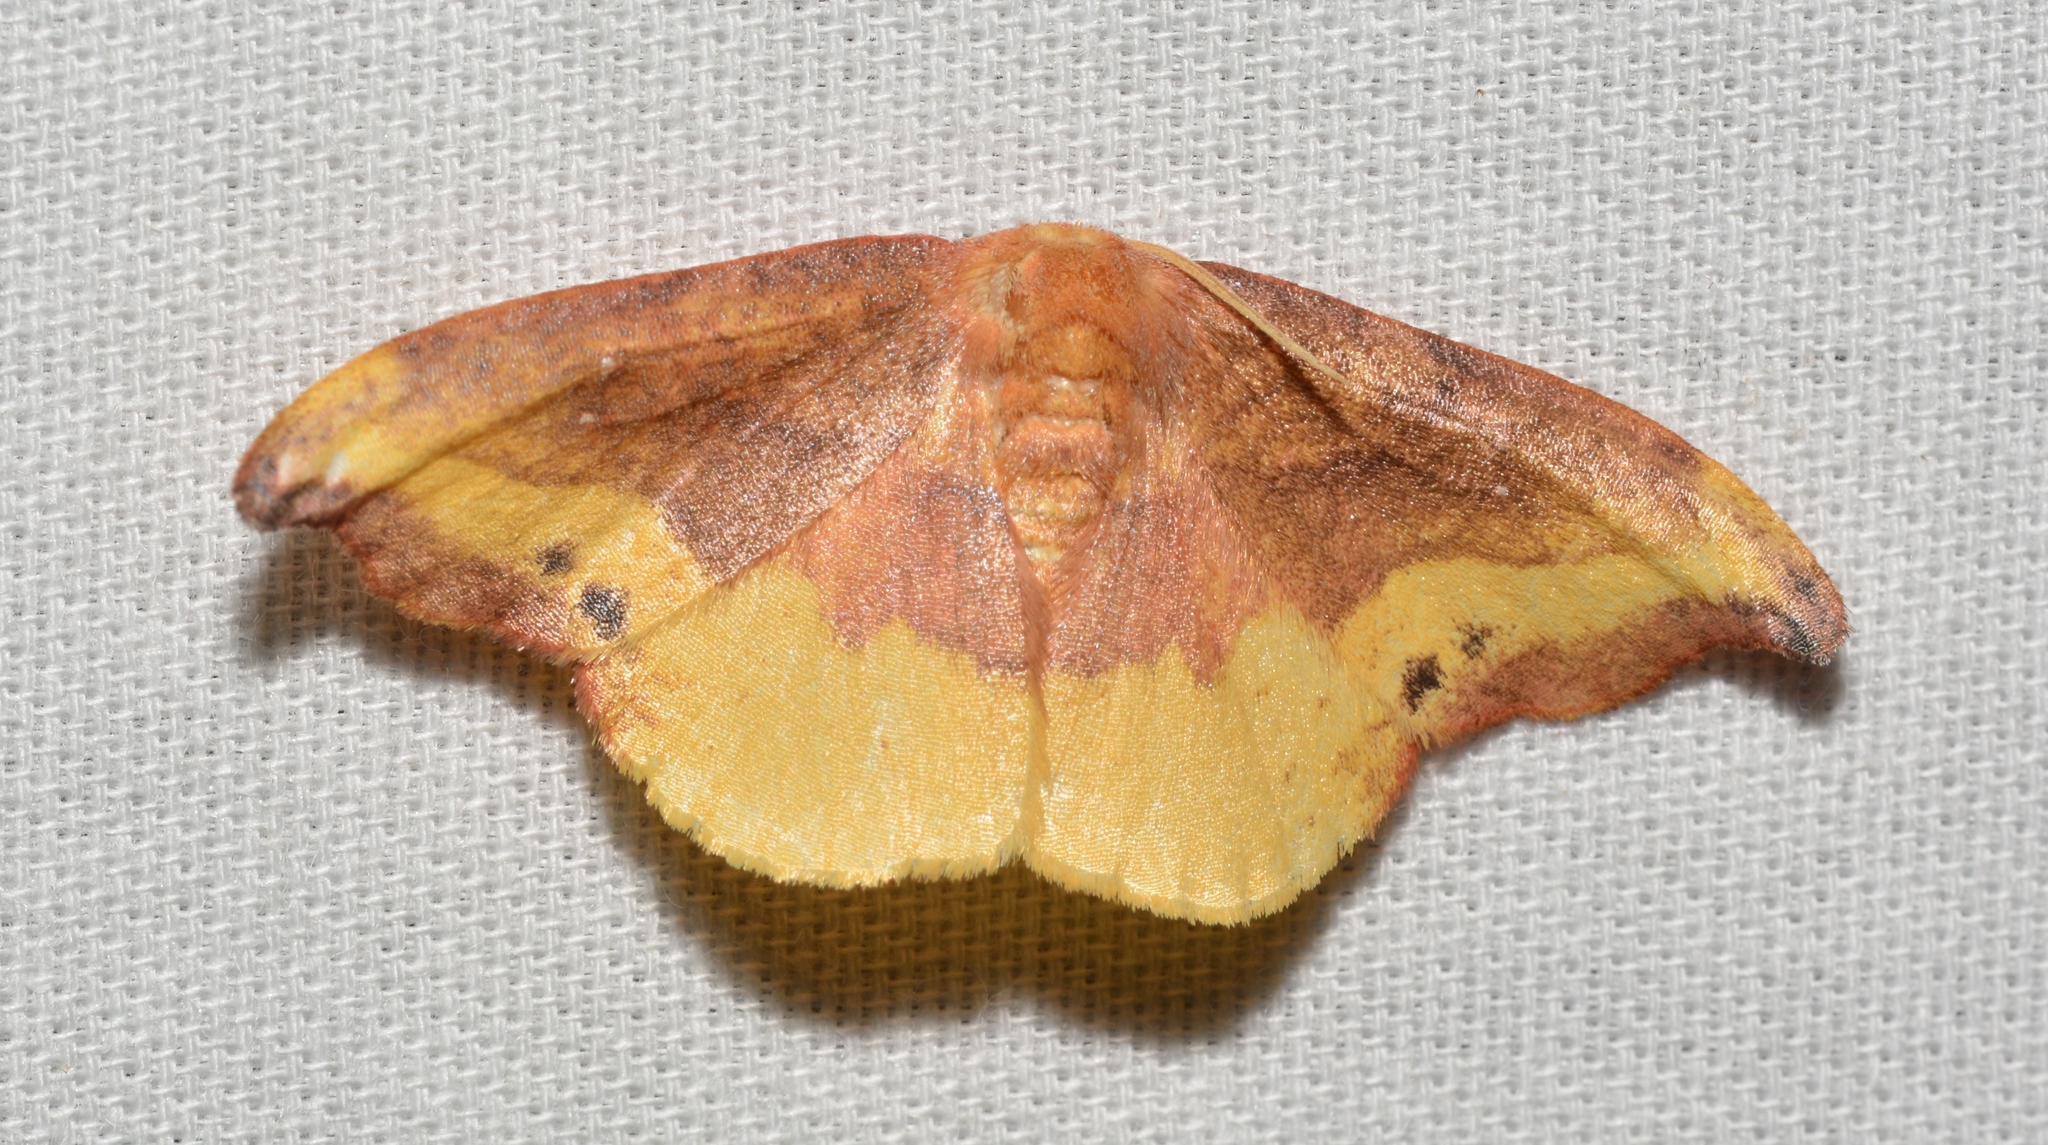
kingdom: Animalia
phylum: Arthropoda
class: Insecta
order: Lepidoptera
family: Drepanidae
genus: Oreta
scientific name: Oreta rosea
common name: Rose hooktip
